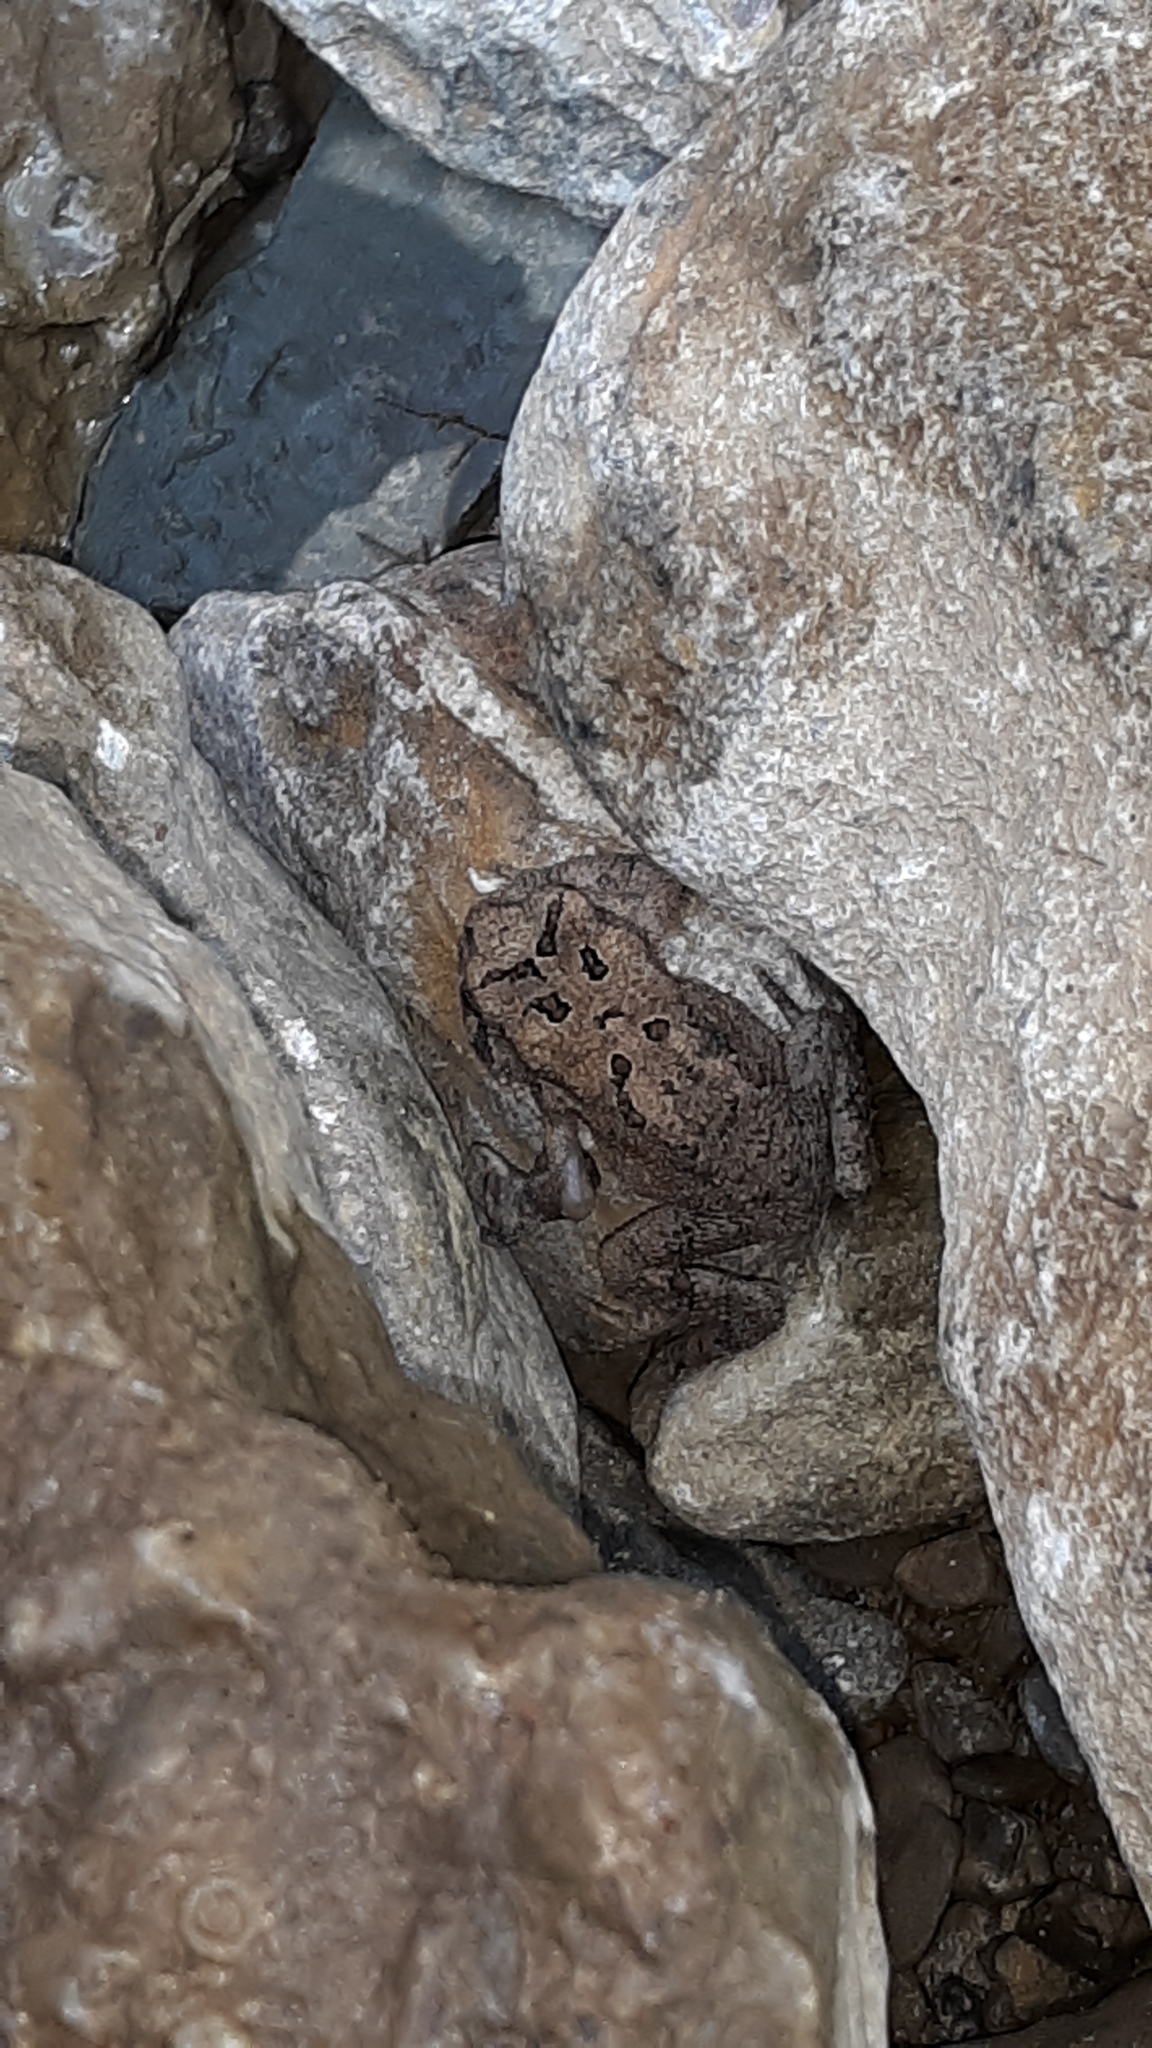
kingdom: Animalia
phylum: Chordata
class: Amphibia
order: Anura
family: Bufonidae
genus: Anaxyrus
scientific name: Anaxyrus americanus
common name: American toad
